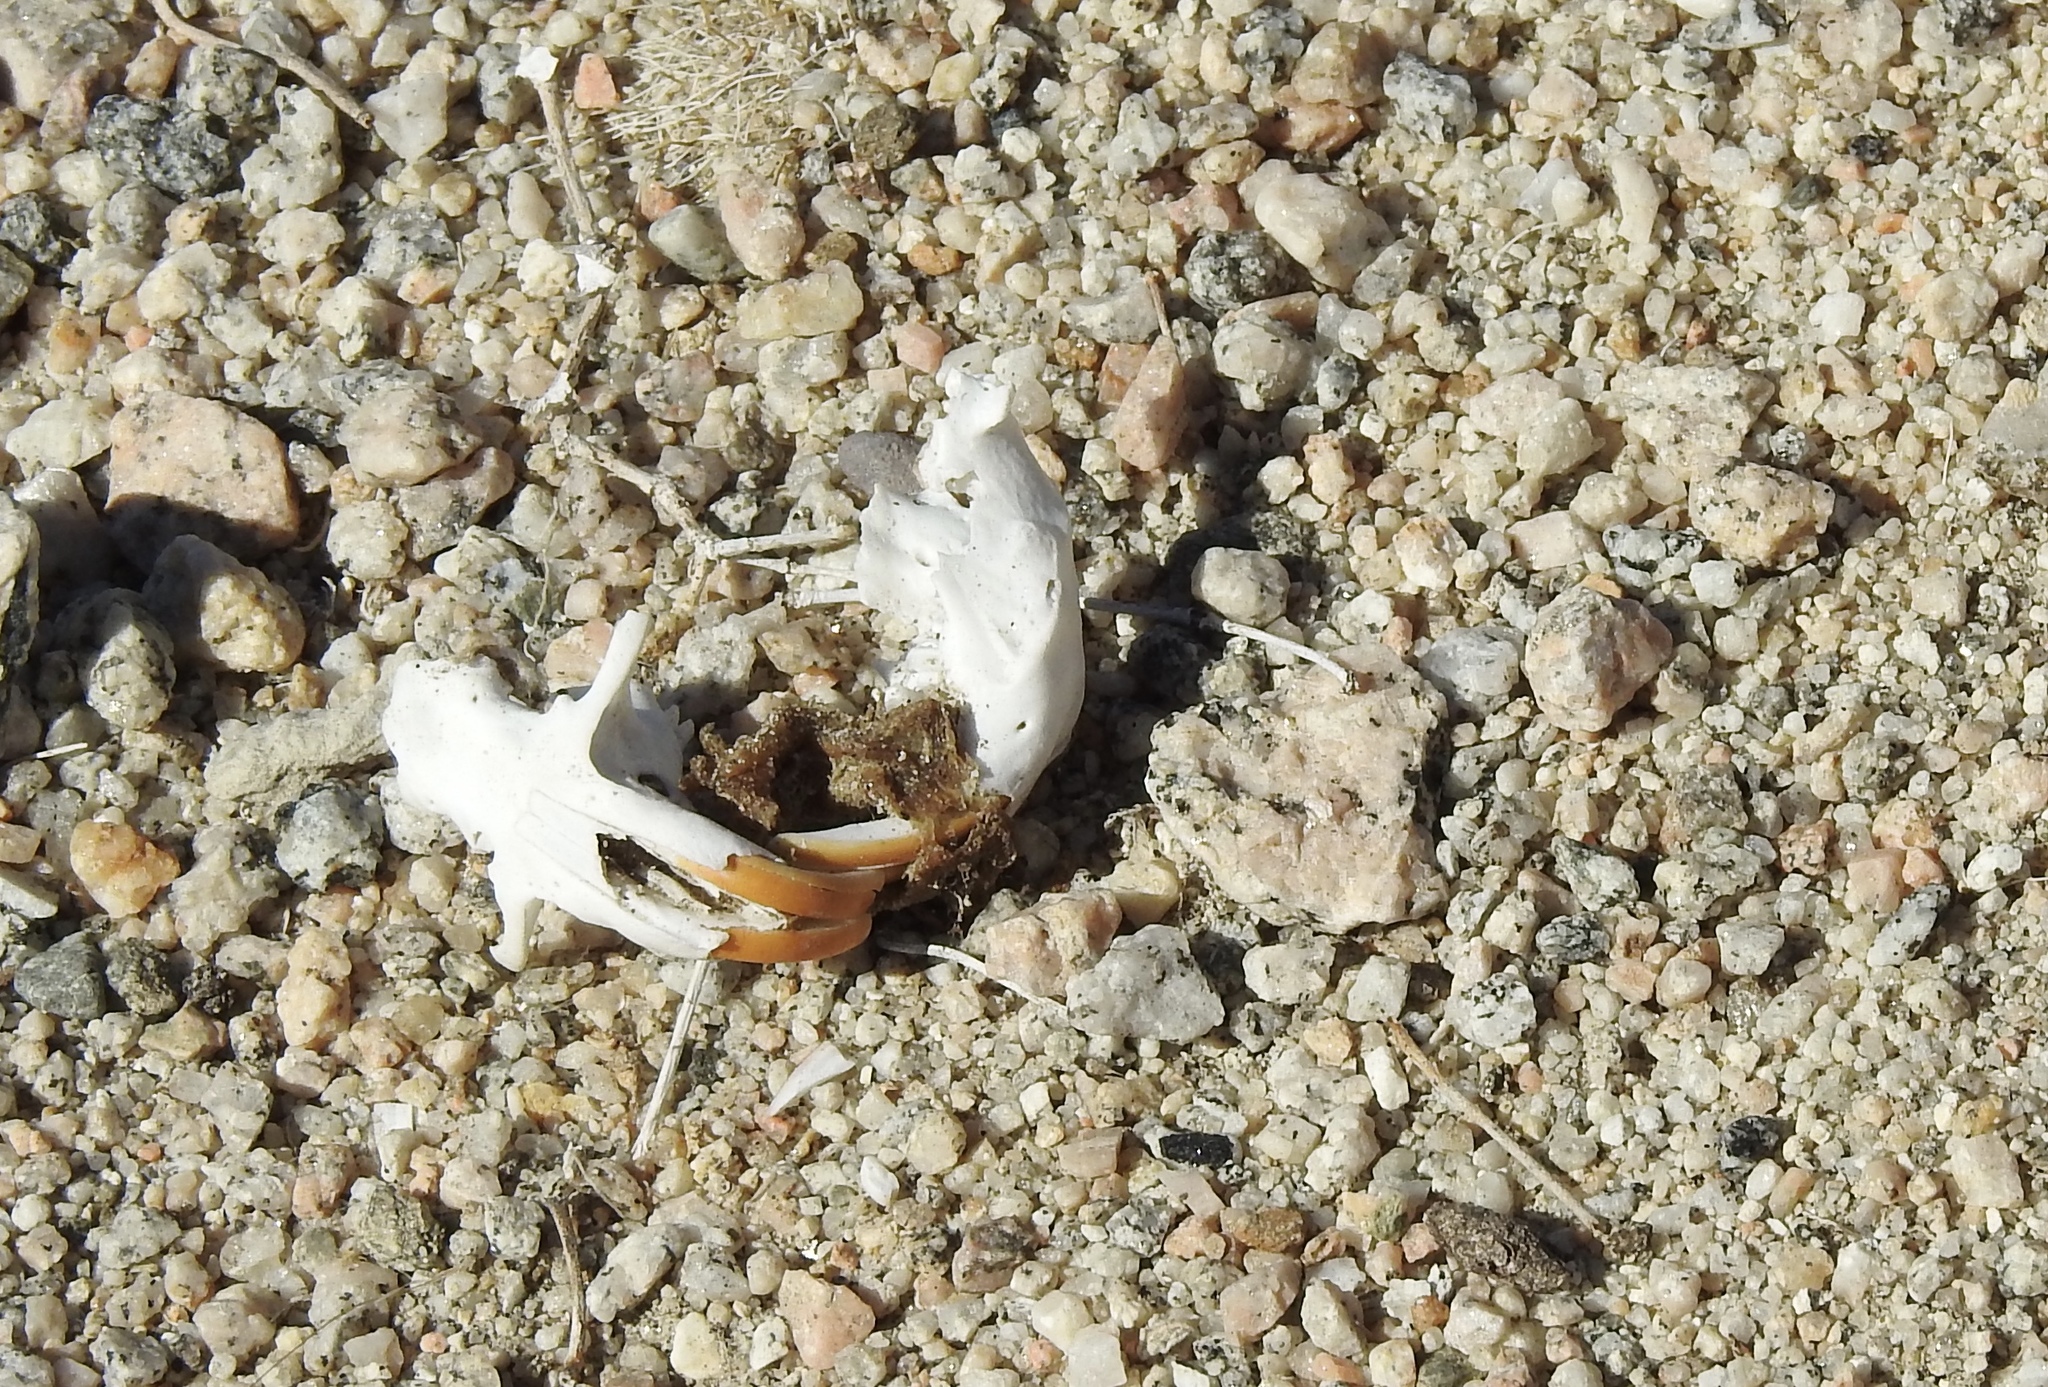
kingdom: Animalia
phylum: Chordata
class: Mammalia
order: Rodentia
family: Geomyidae
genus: Thomomys
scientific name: Thomomys bottae
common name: Botta's pocket gopher
